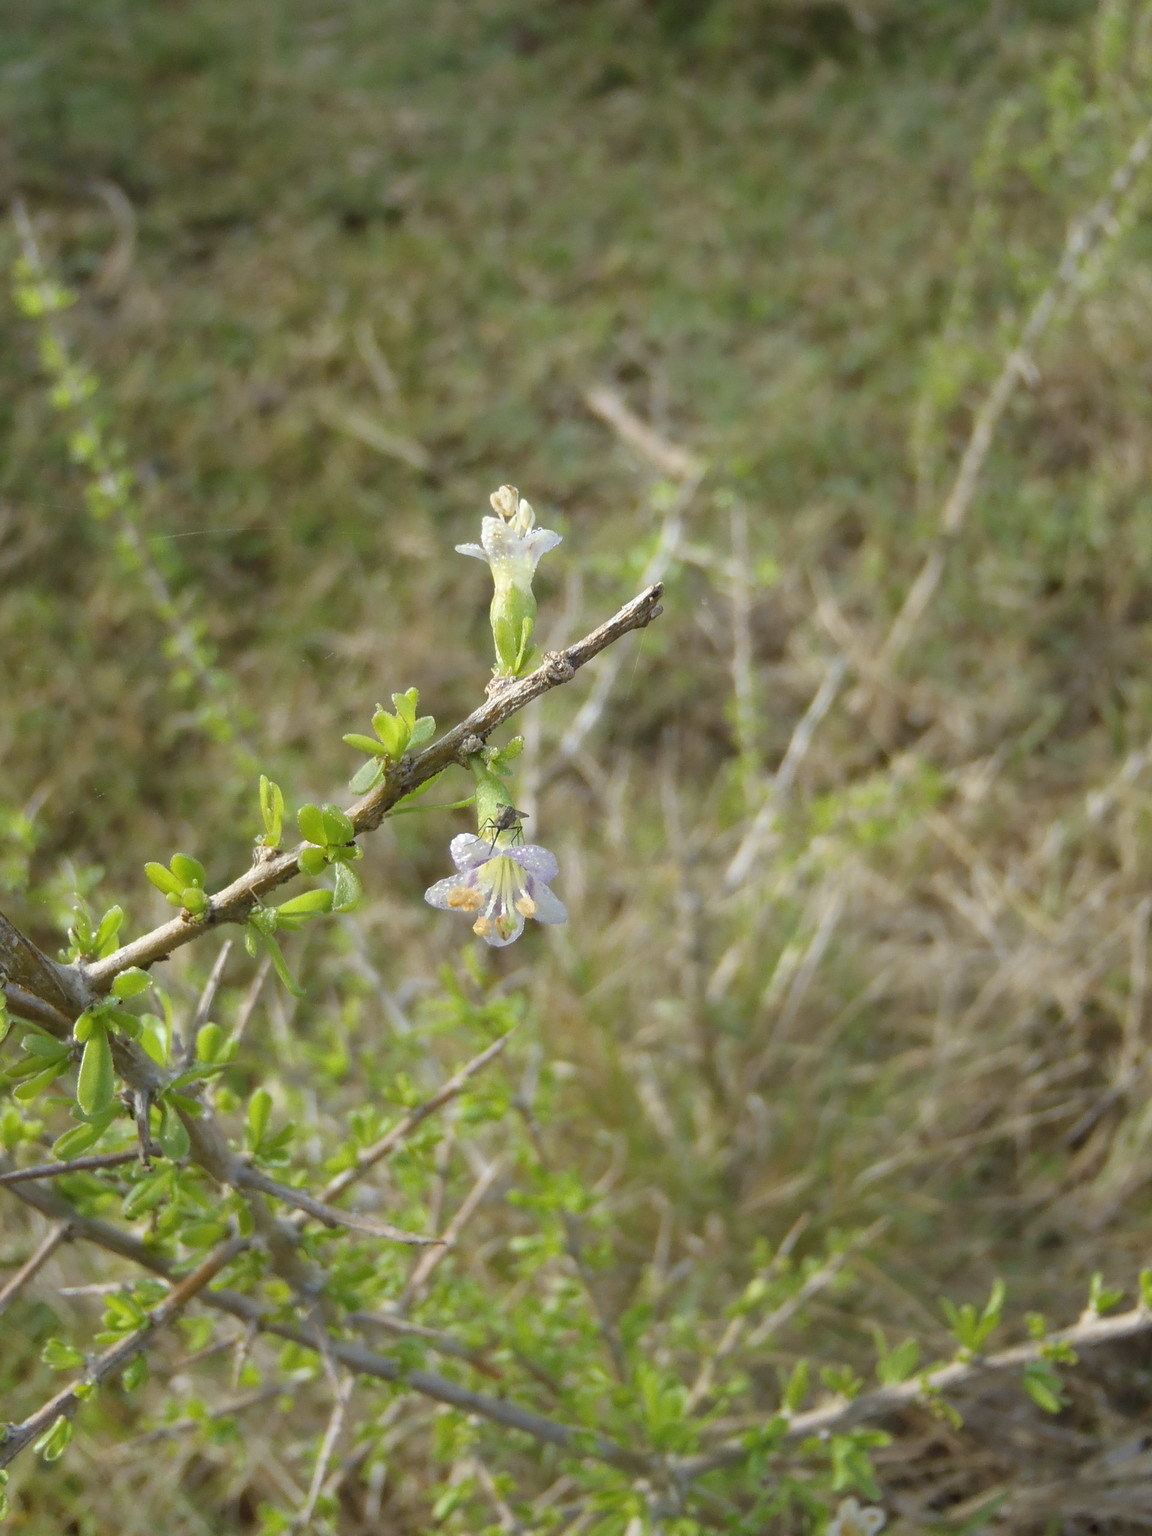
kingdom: Plantae
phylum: Tracheophyta
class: Magnoliopsida
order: Solanales
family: Solanaceae
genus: Lycium
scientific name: Lycium ferocissimum
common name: African boxthorn
